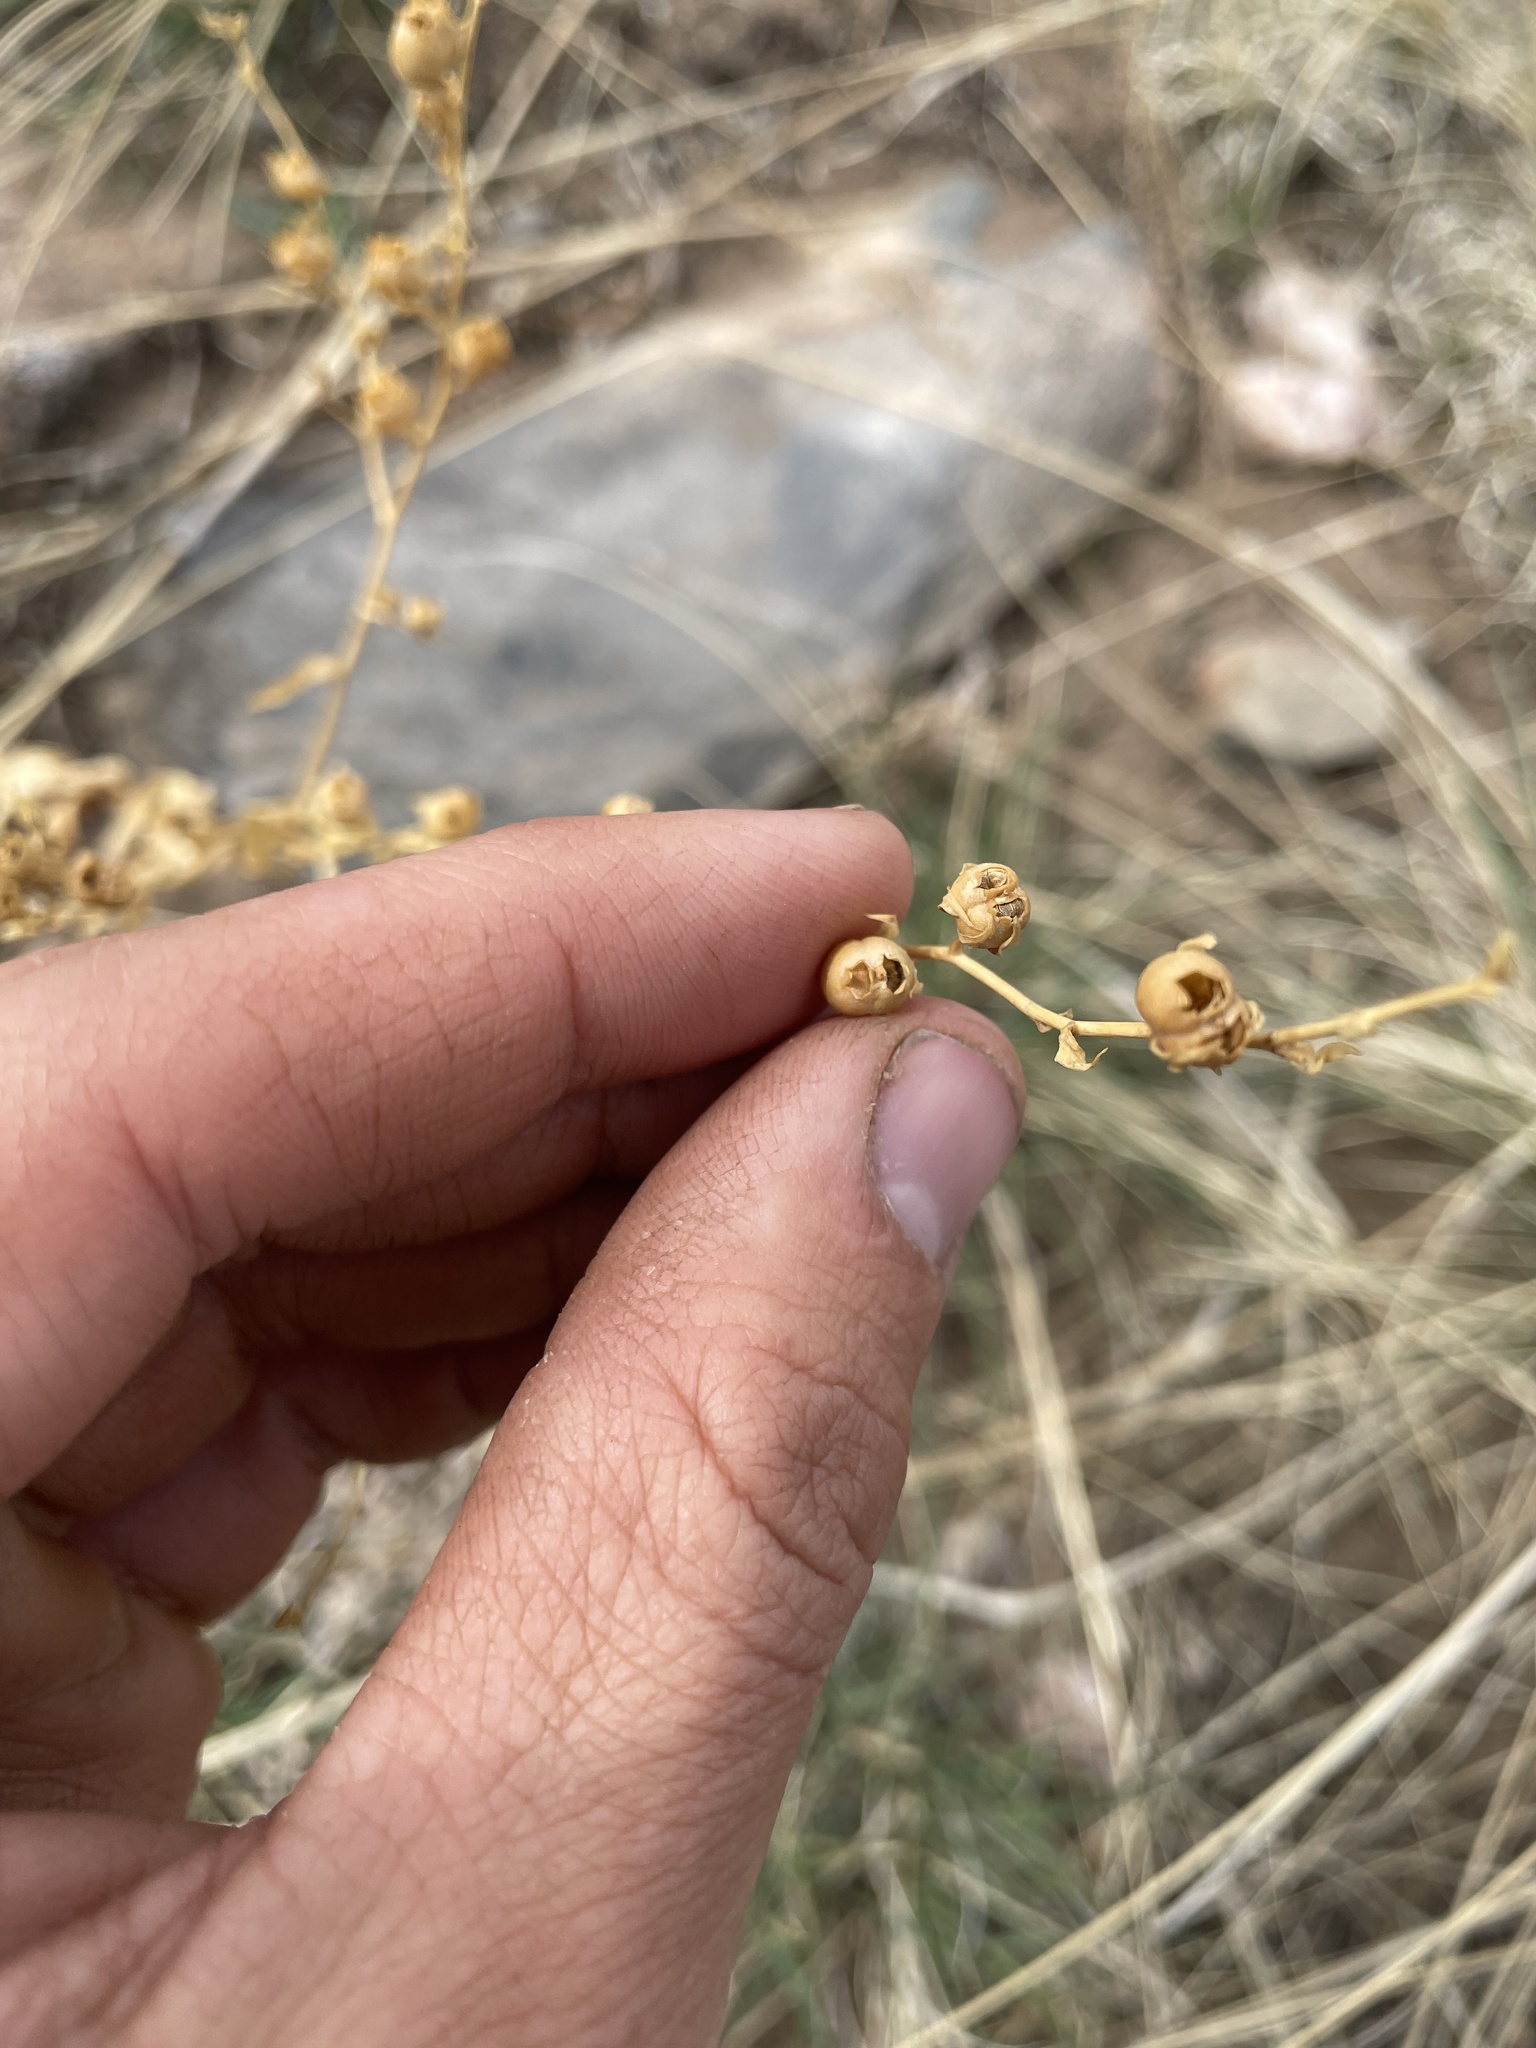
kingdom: Plantae
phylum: Tracheophyta
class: Magnoliopsida
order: Lamiales
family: Plantaginaceae
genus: Linaria
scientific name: Linaria dalmatica
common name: Dalmatian toadflax
